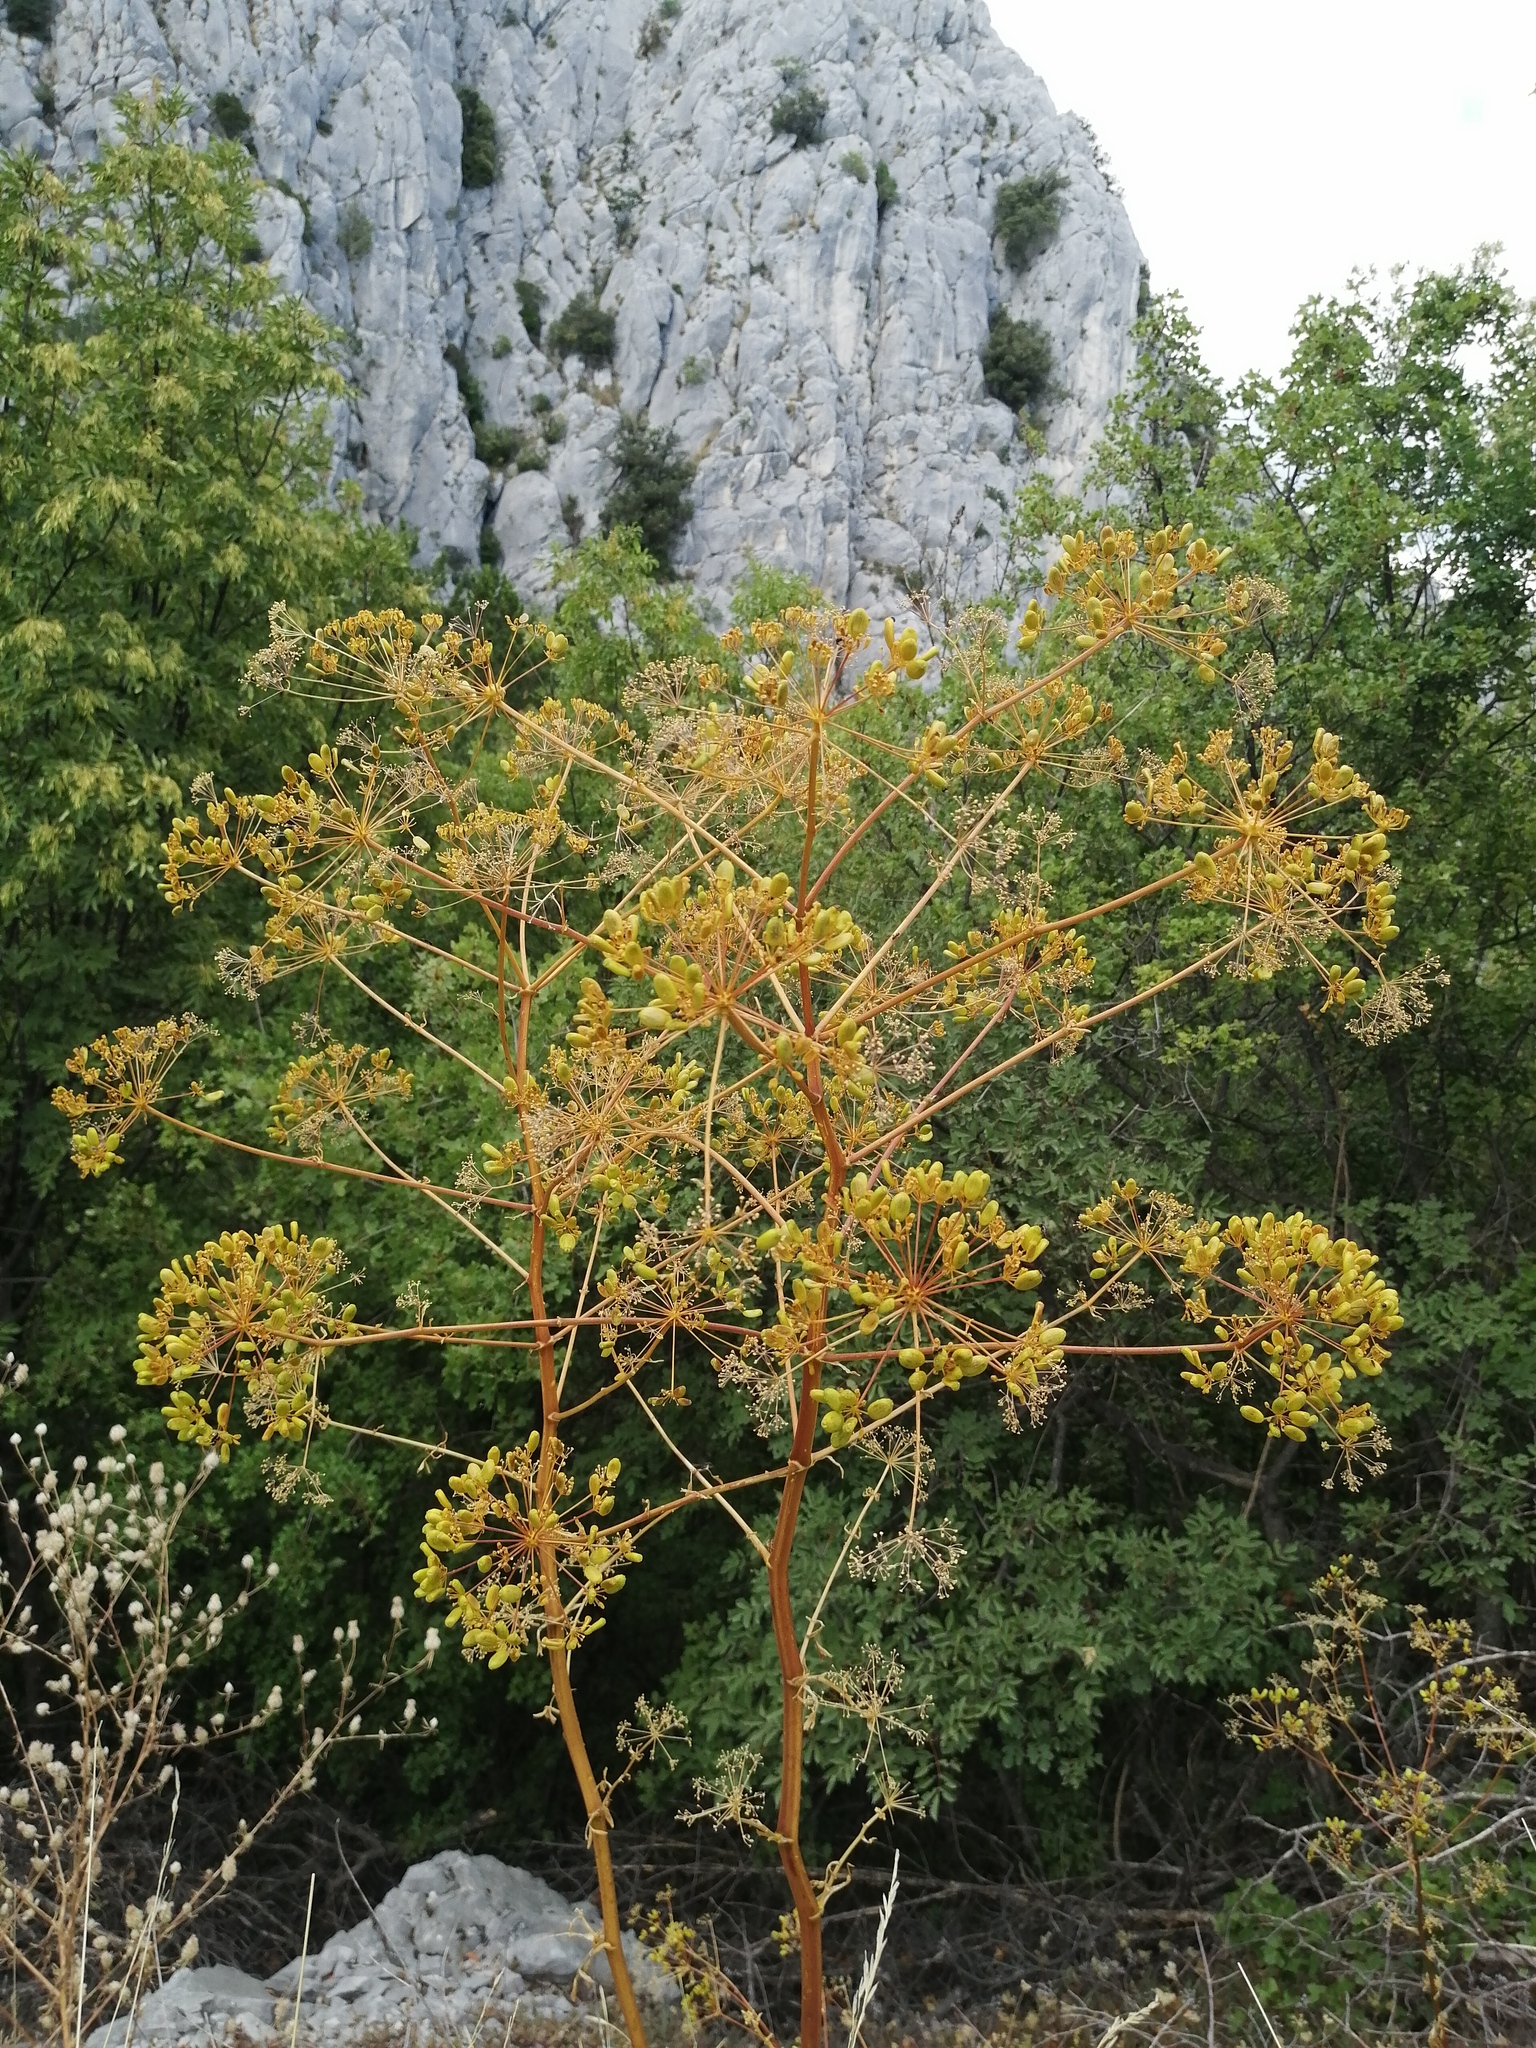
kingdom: Plantae
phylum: Tracheophyta
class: Magnoliopsida
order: Apiales
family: Apiaceae
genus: Opopanax
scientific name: Opopanax chironium
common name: Hercules-all-heal
